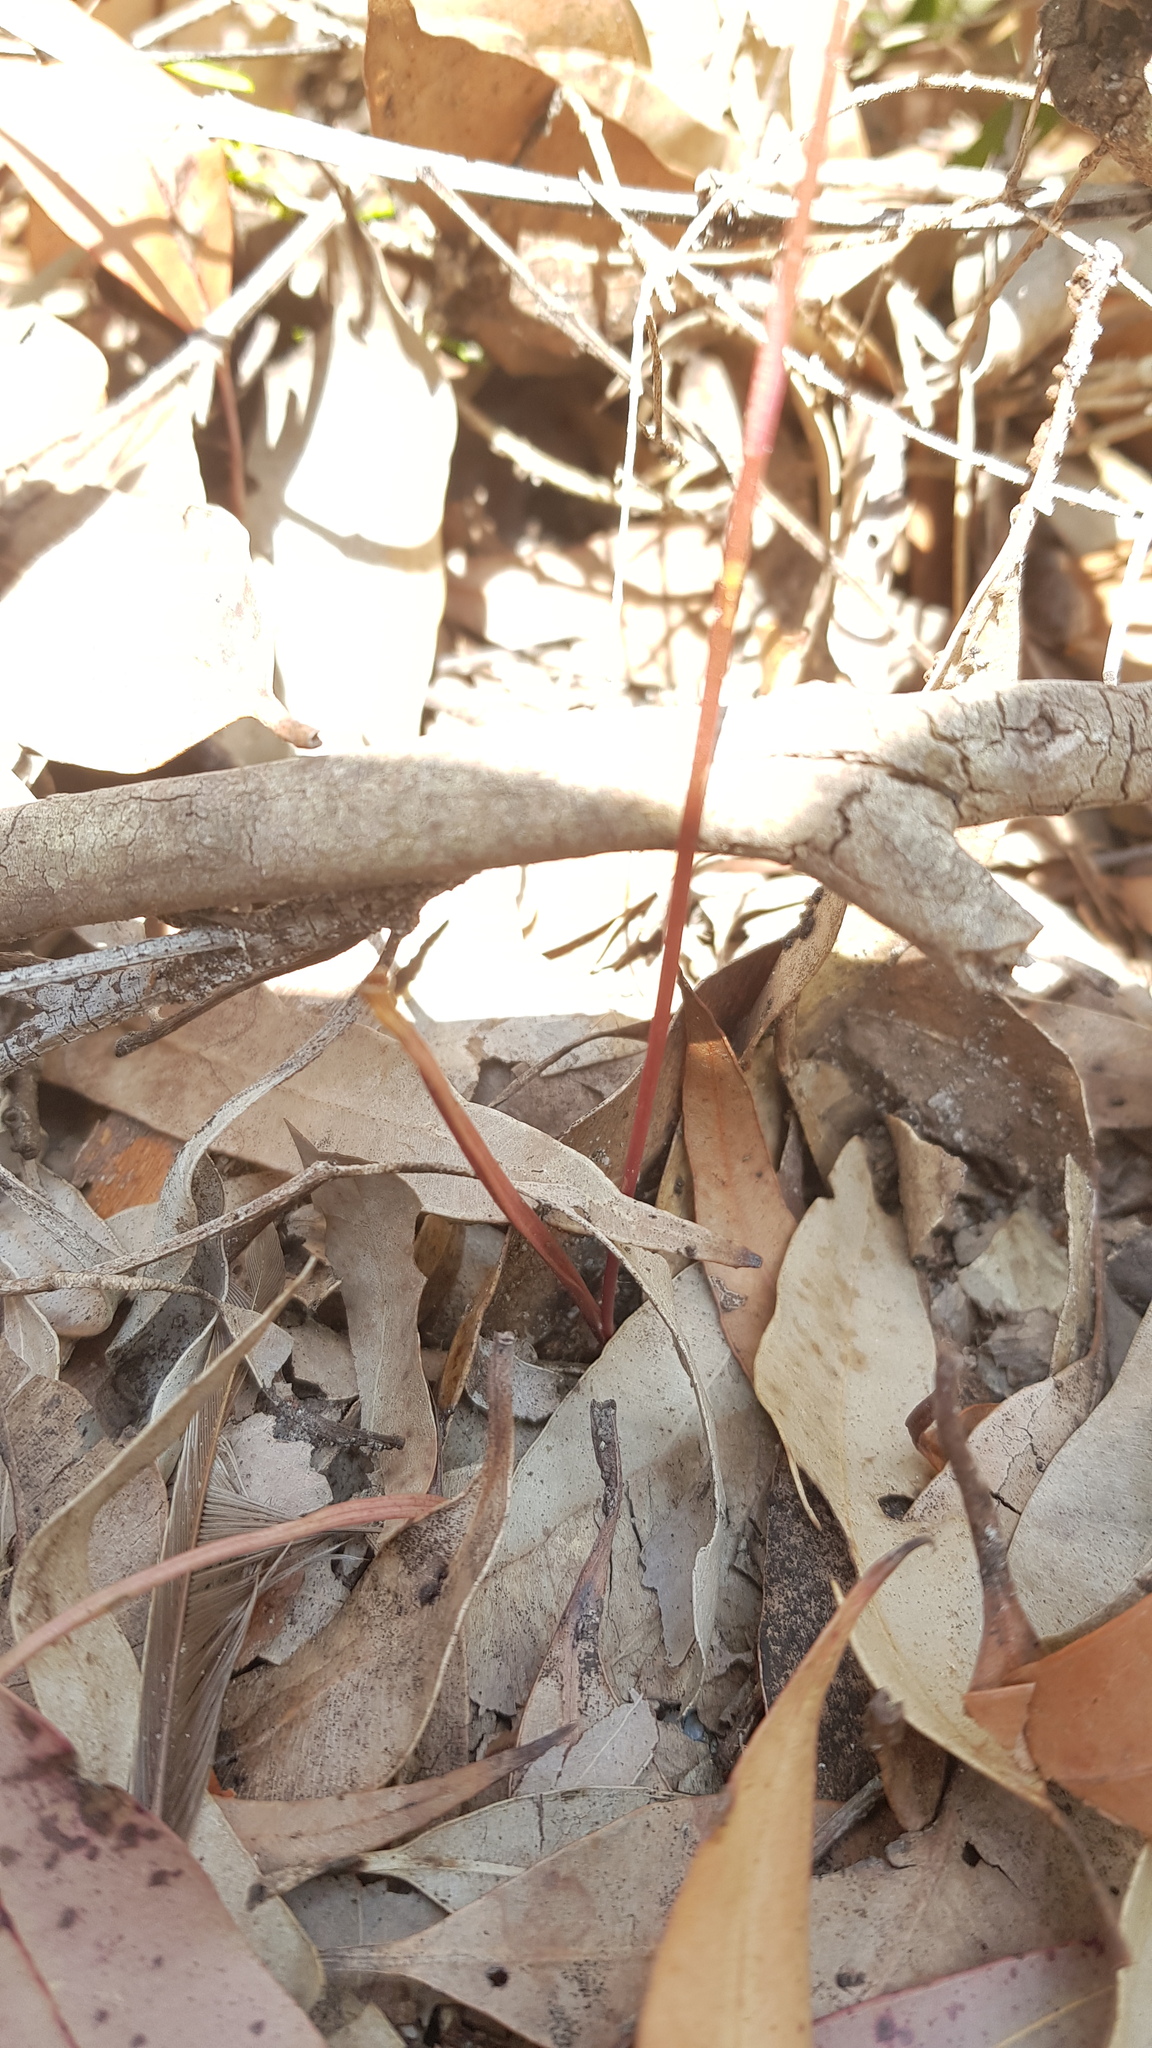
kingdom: Plantae
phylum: Tracheophyta
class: Liliopsida
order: Asparagales
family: Orchidaceae
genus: Caleana
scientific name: Caleana major
